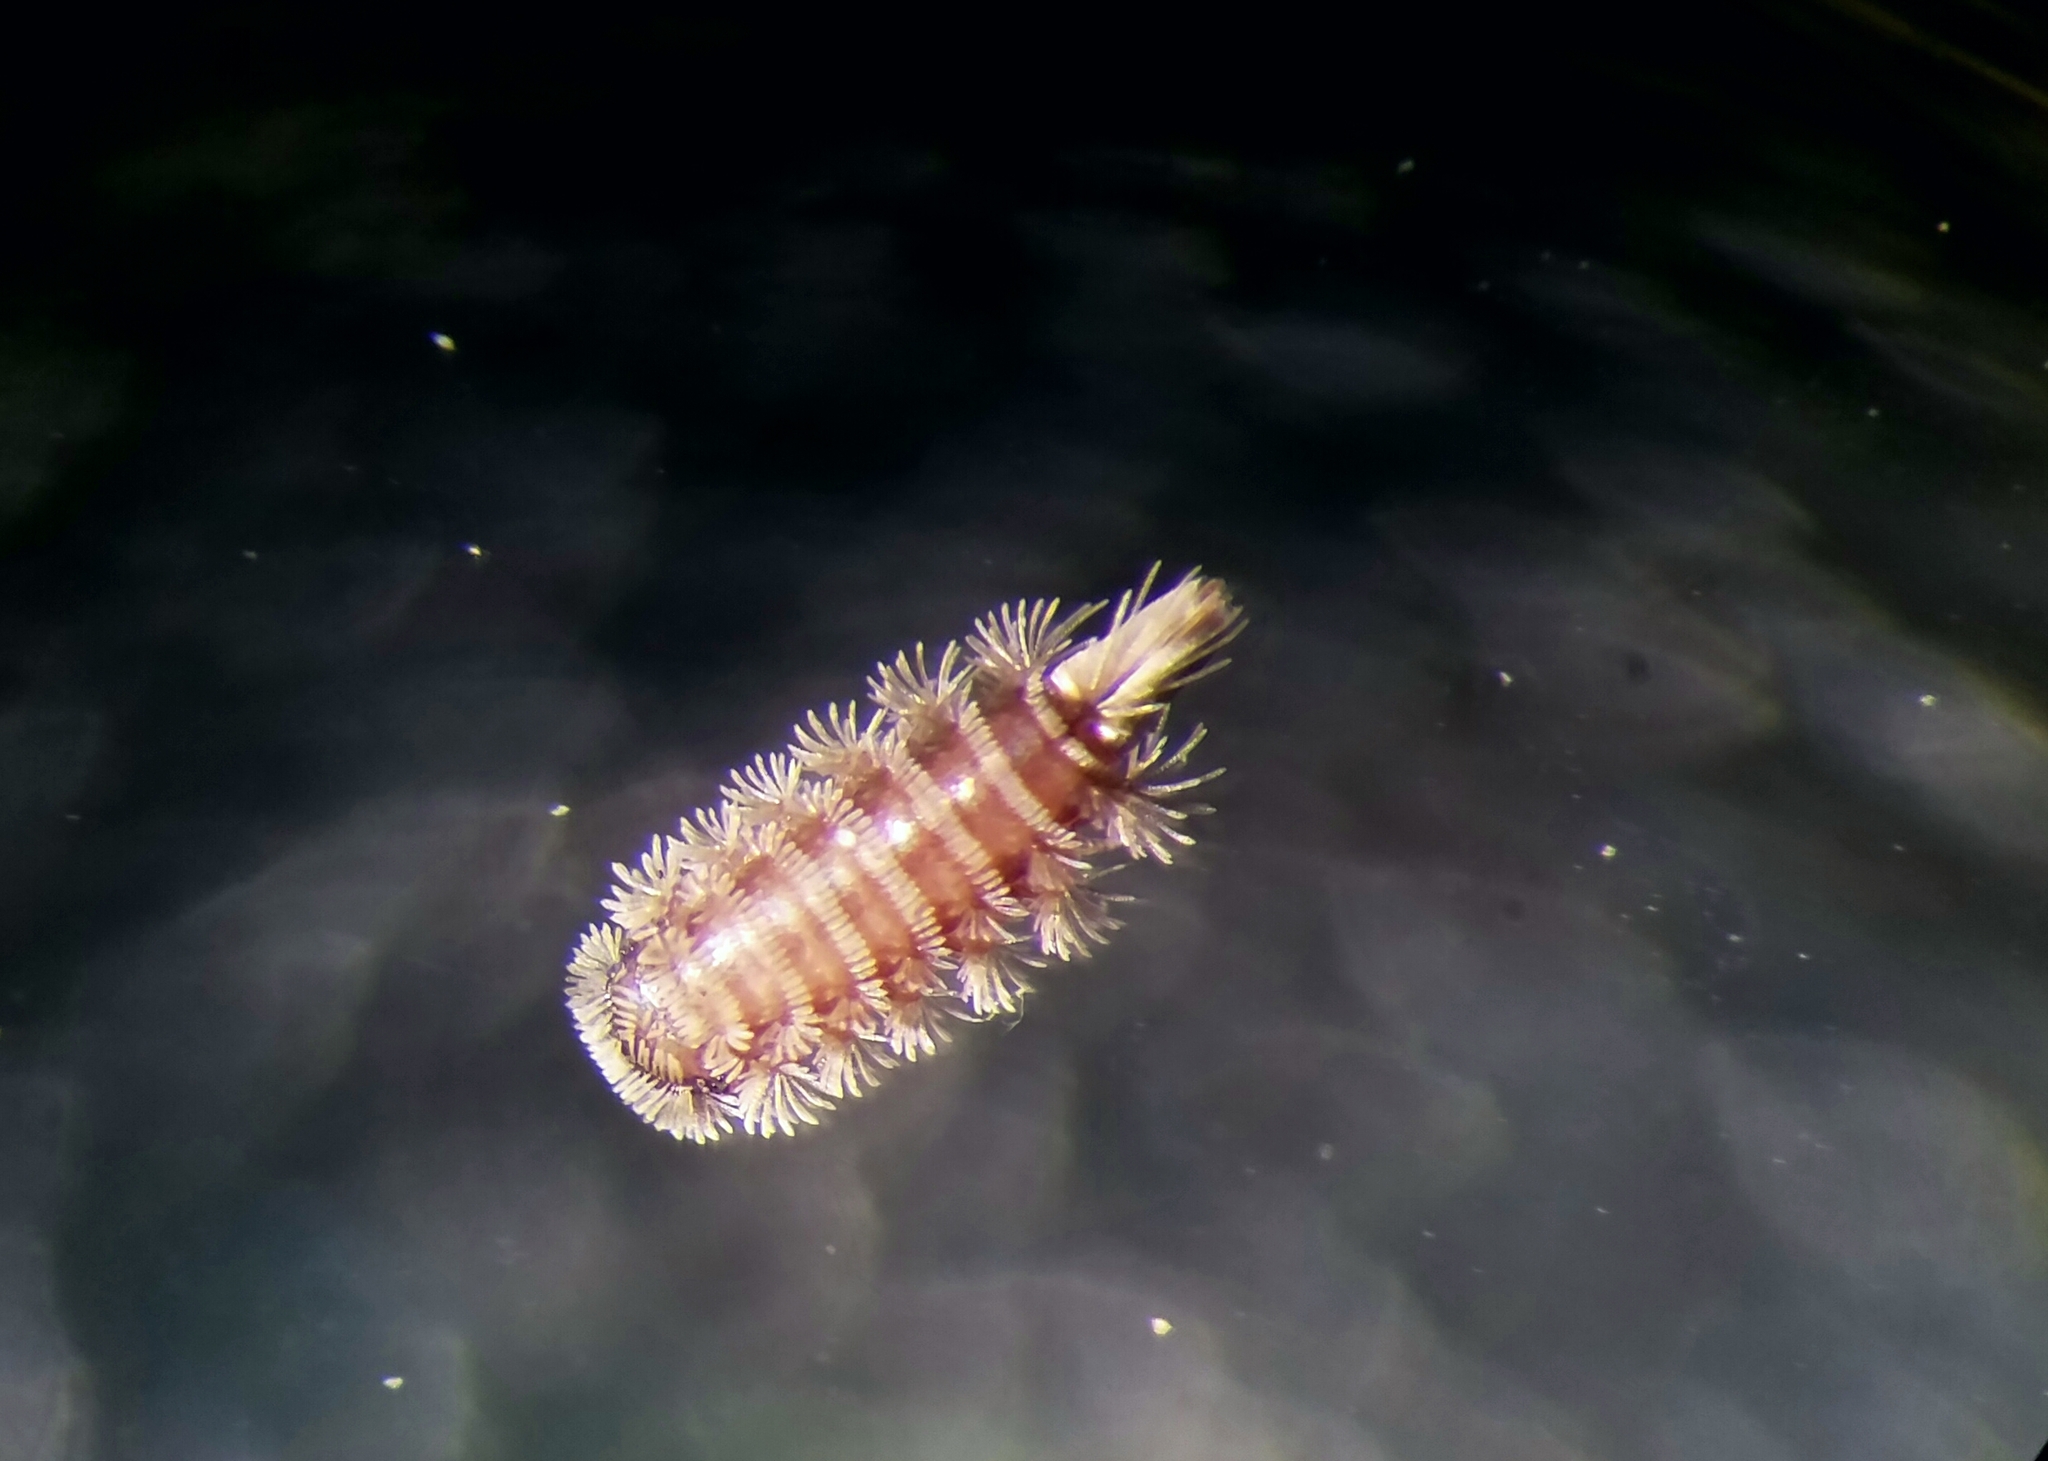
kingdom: Animalia
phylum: Arthropoda
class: Diplopoda
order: Polyxenida
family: Polyxenidae
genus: Polyxenus
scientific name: Polyxenus lagurus
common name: Bristly millipede
